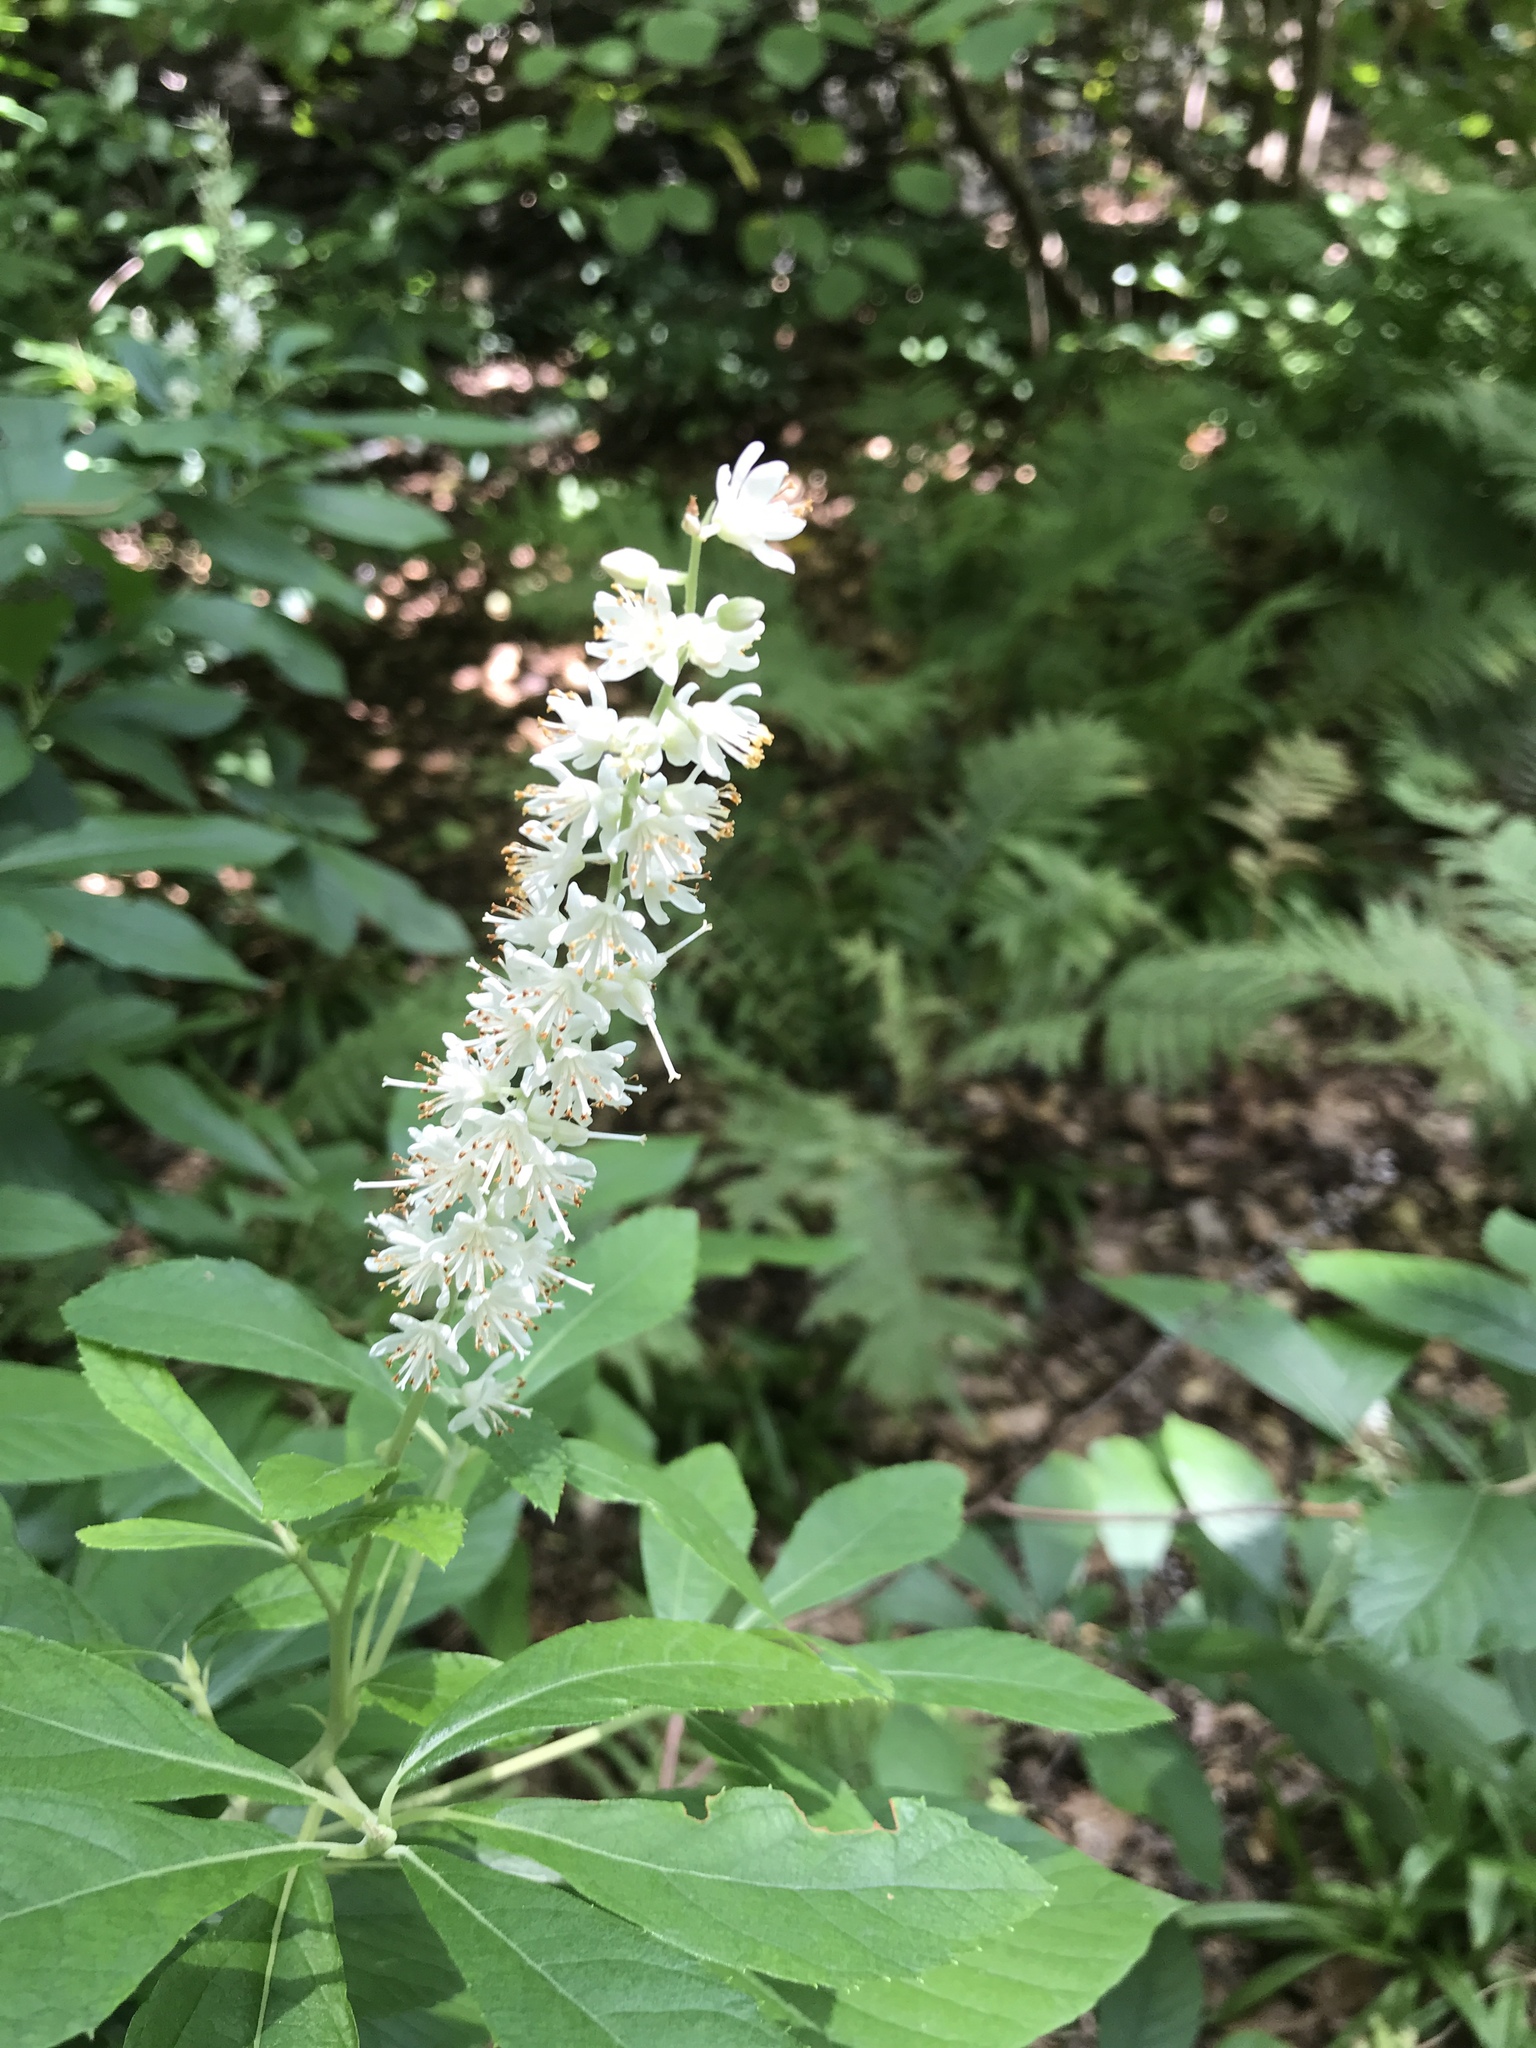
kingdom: Plantae
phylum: Tracheophyta
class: Magnoliopsida
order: Ericales
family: Clethraceae
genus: Clethra
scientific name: Clethra alnifolia
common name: Sweet pepperbush
